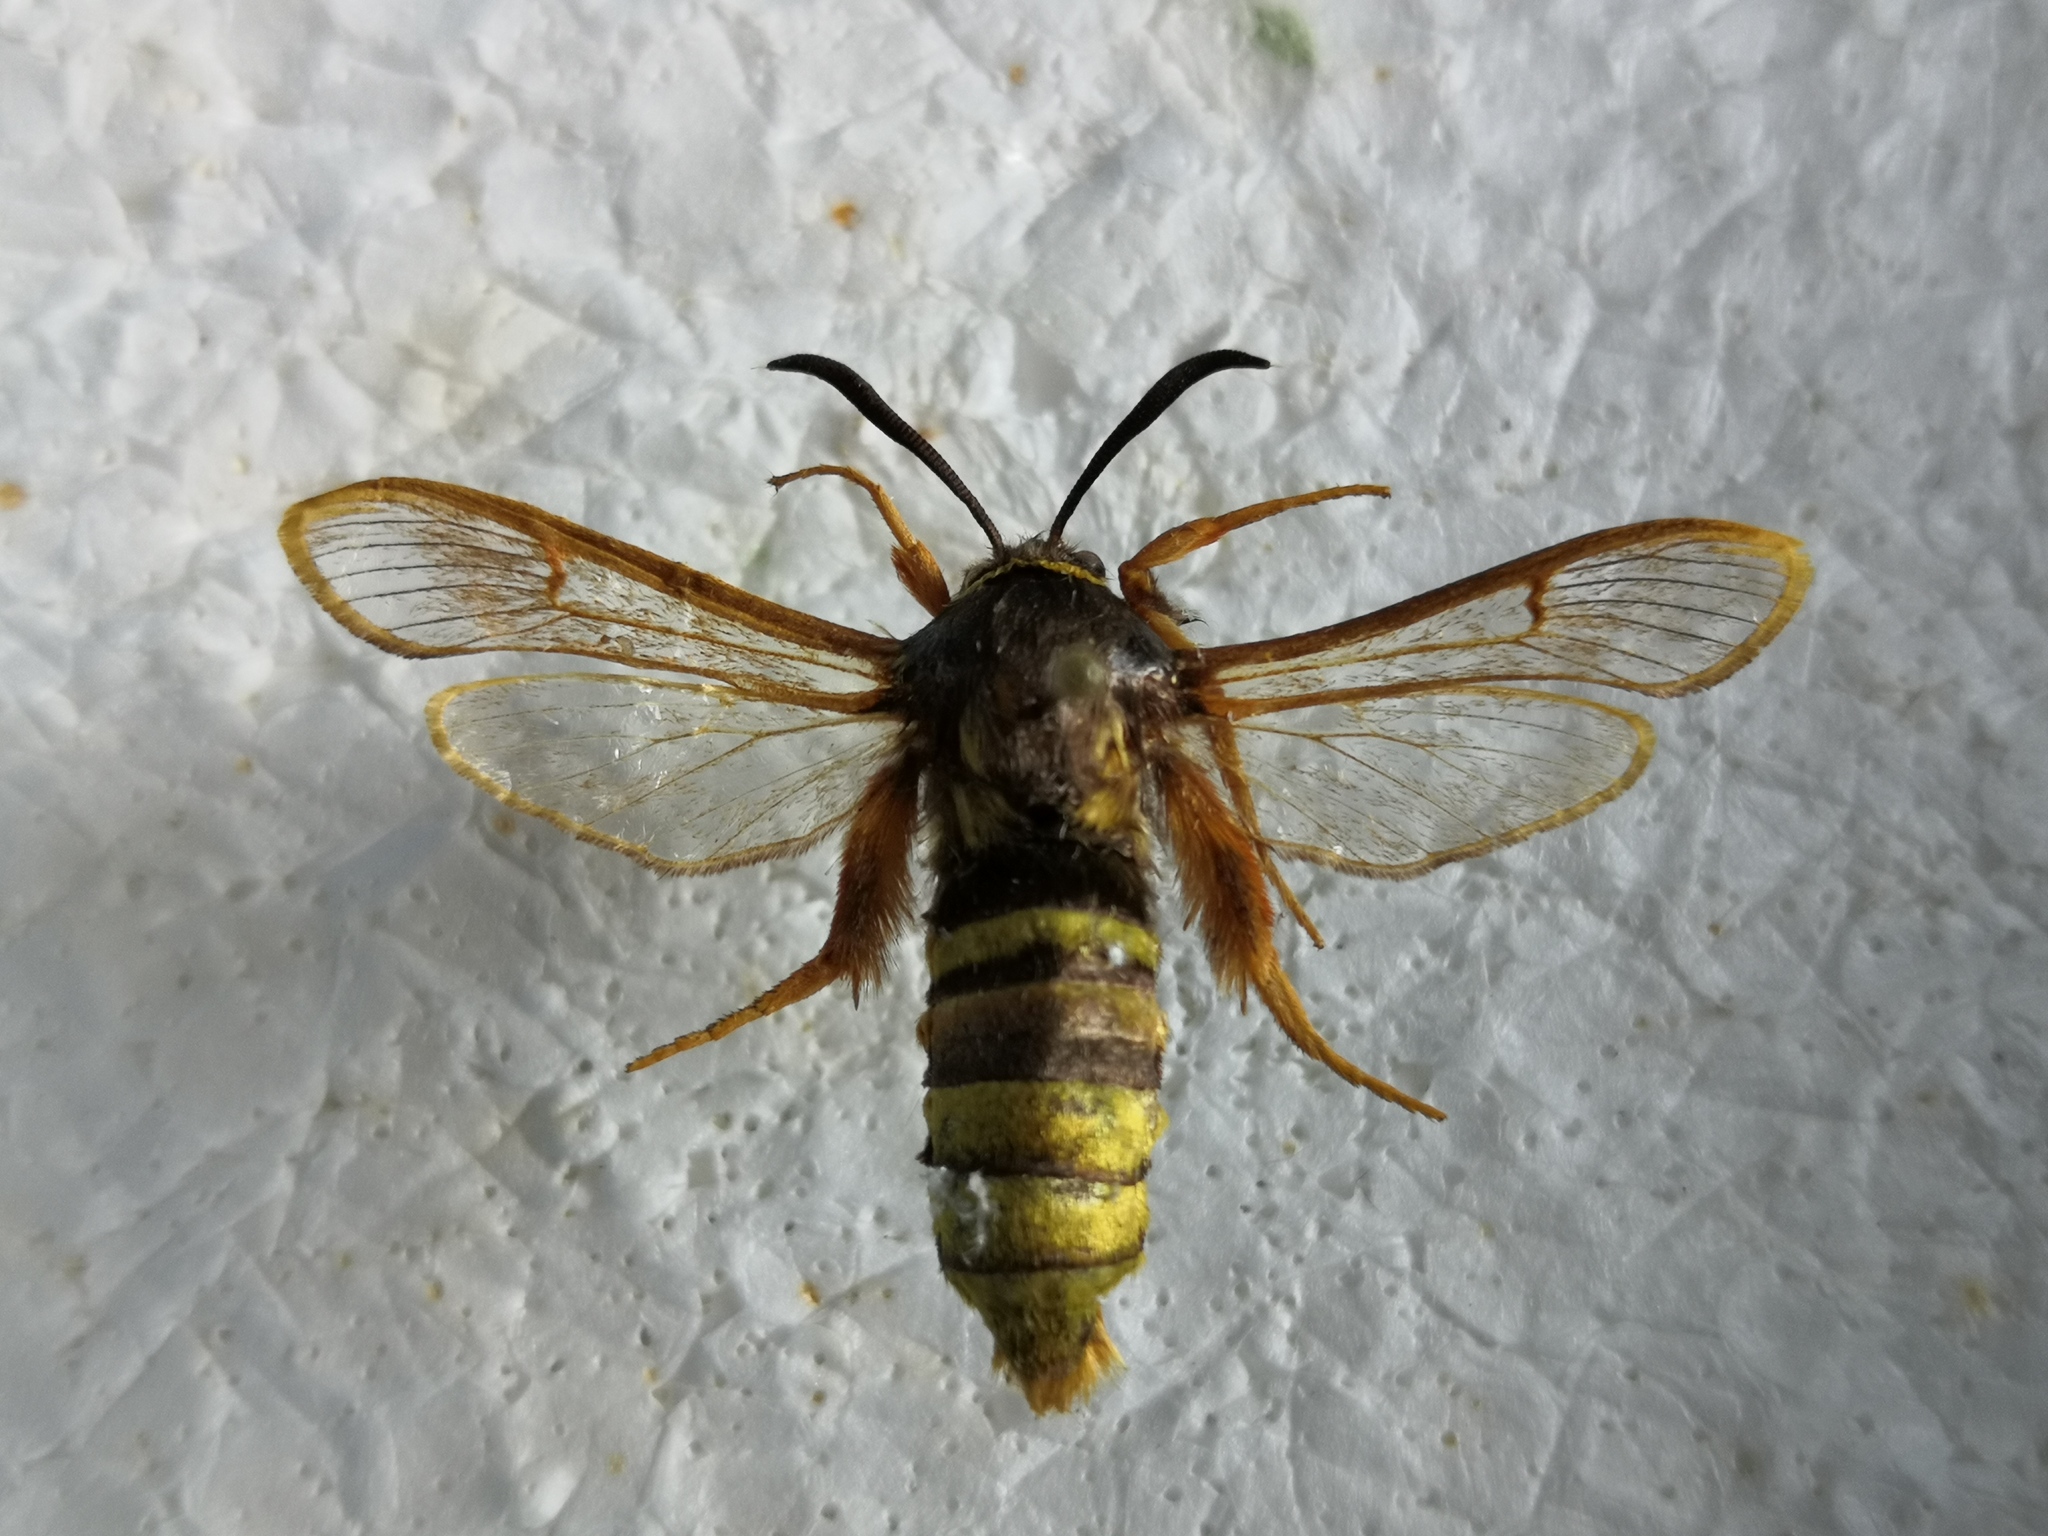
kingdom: Animalia
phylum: Arthropoda
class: Insecta
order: Lepidoptera
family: Sesiidae
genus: Sesia
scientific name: Sesia bembeciformis
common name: Lunar hornet moth
